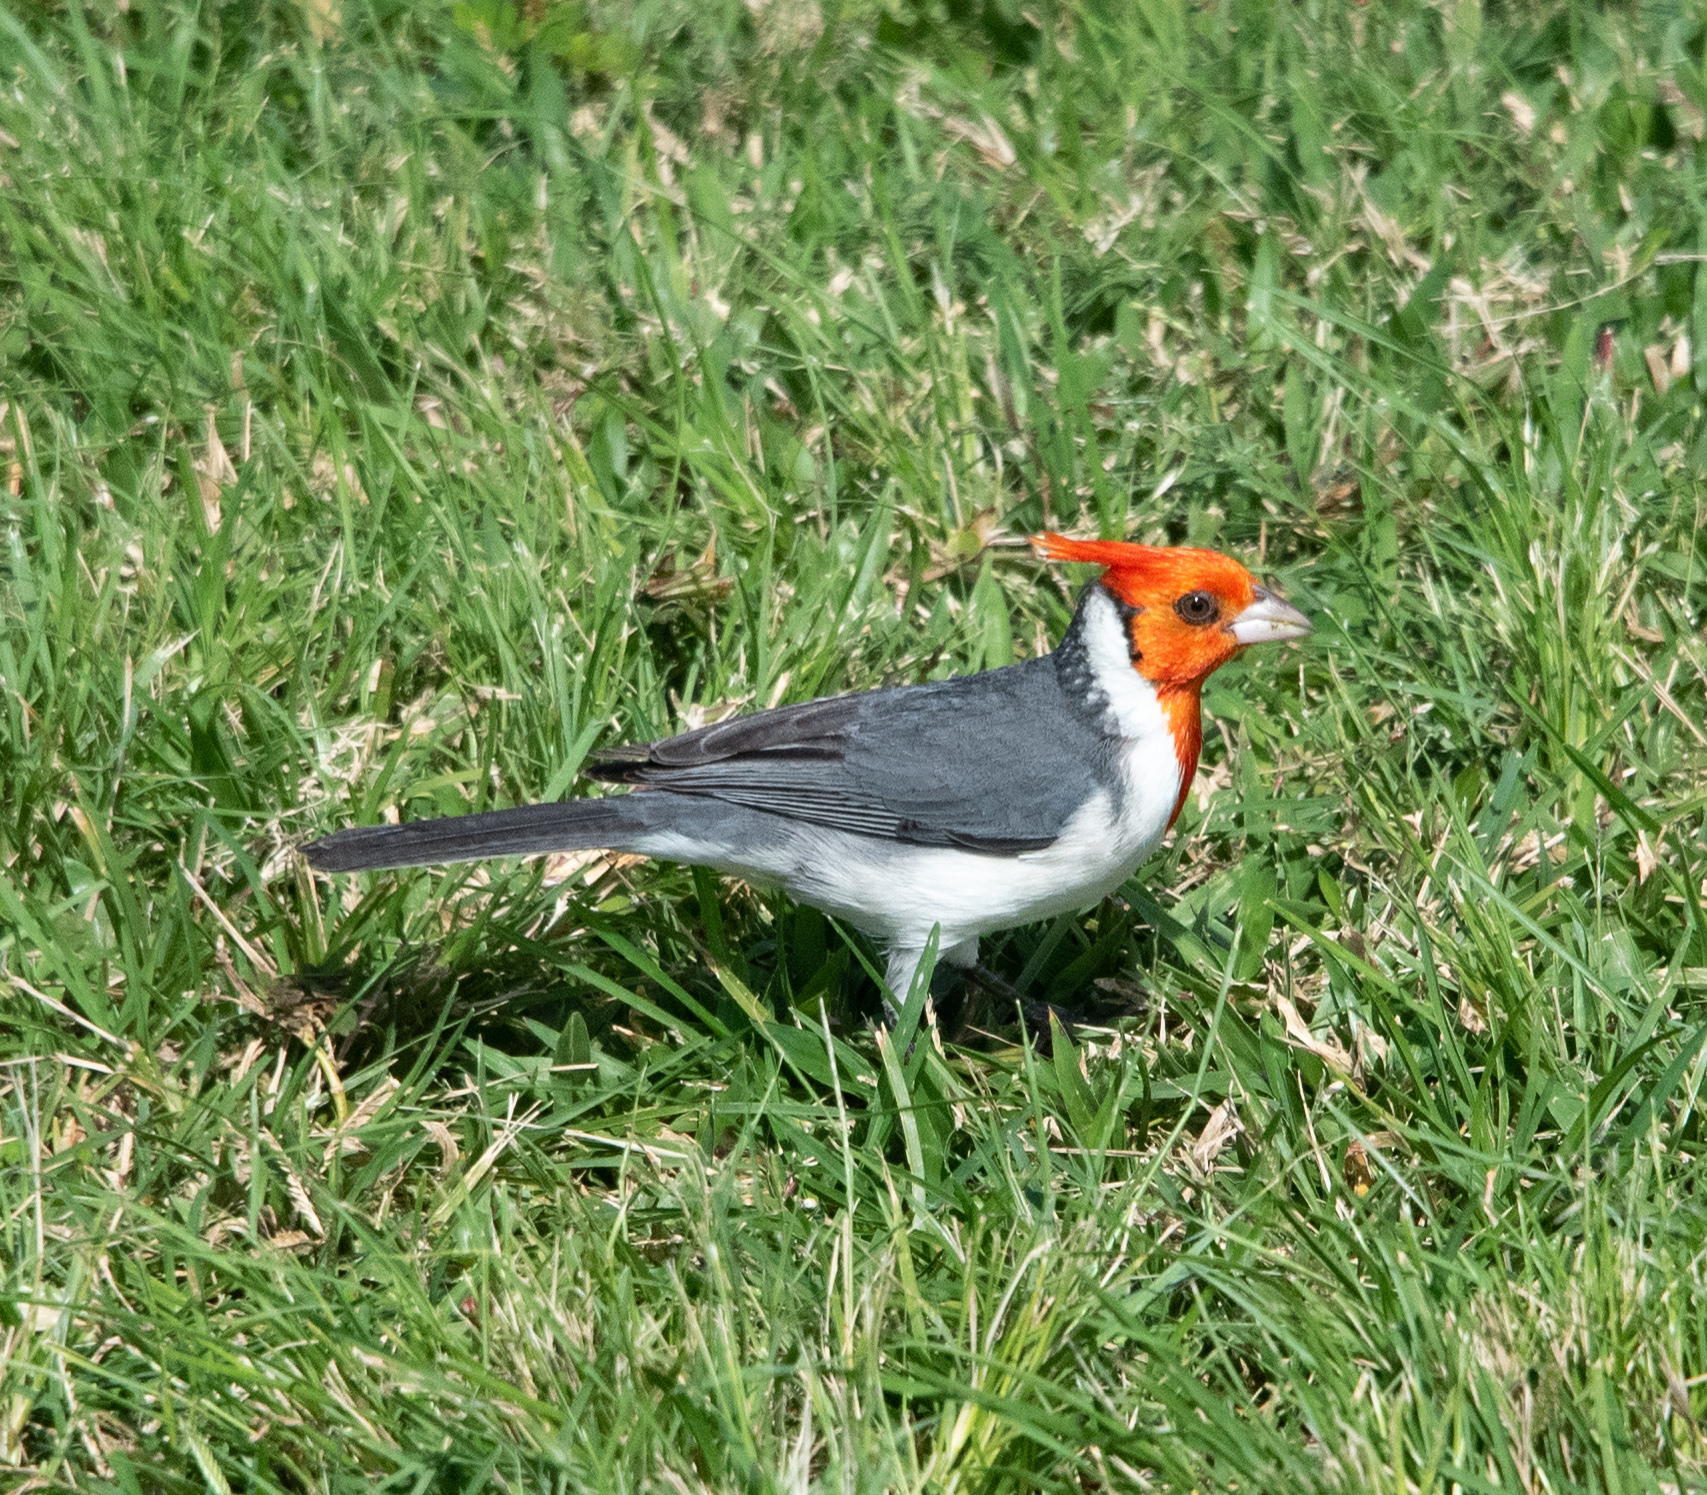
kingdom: Animalia
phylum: Chordata
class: Aves
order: Passeriformes
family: Thraupidae
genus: Paroaria
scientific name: Paroaria coronata
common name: Red-crested cardinal
